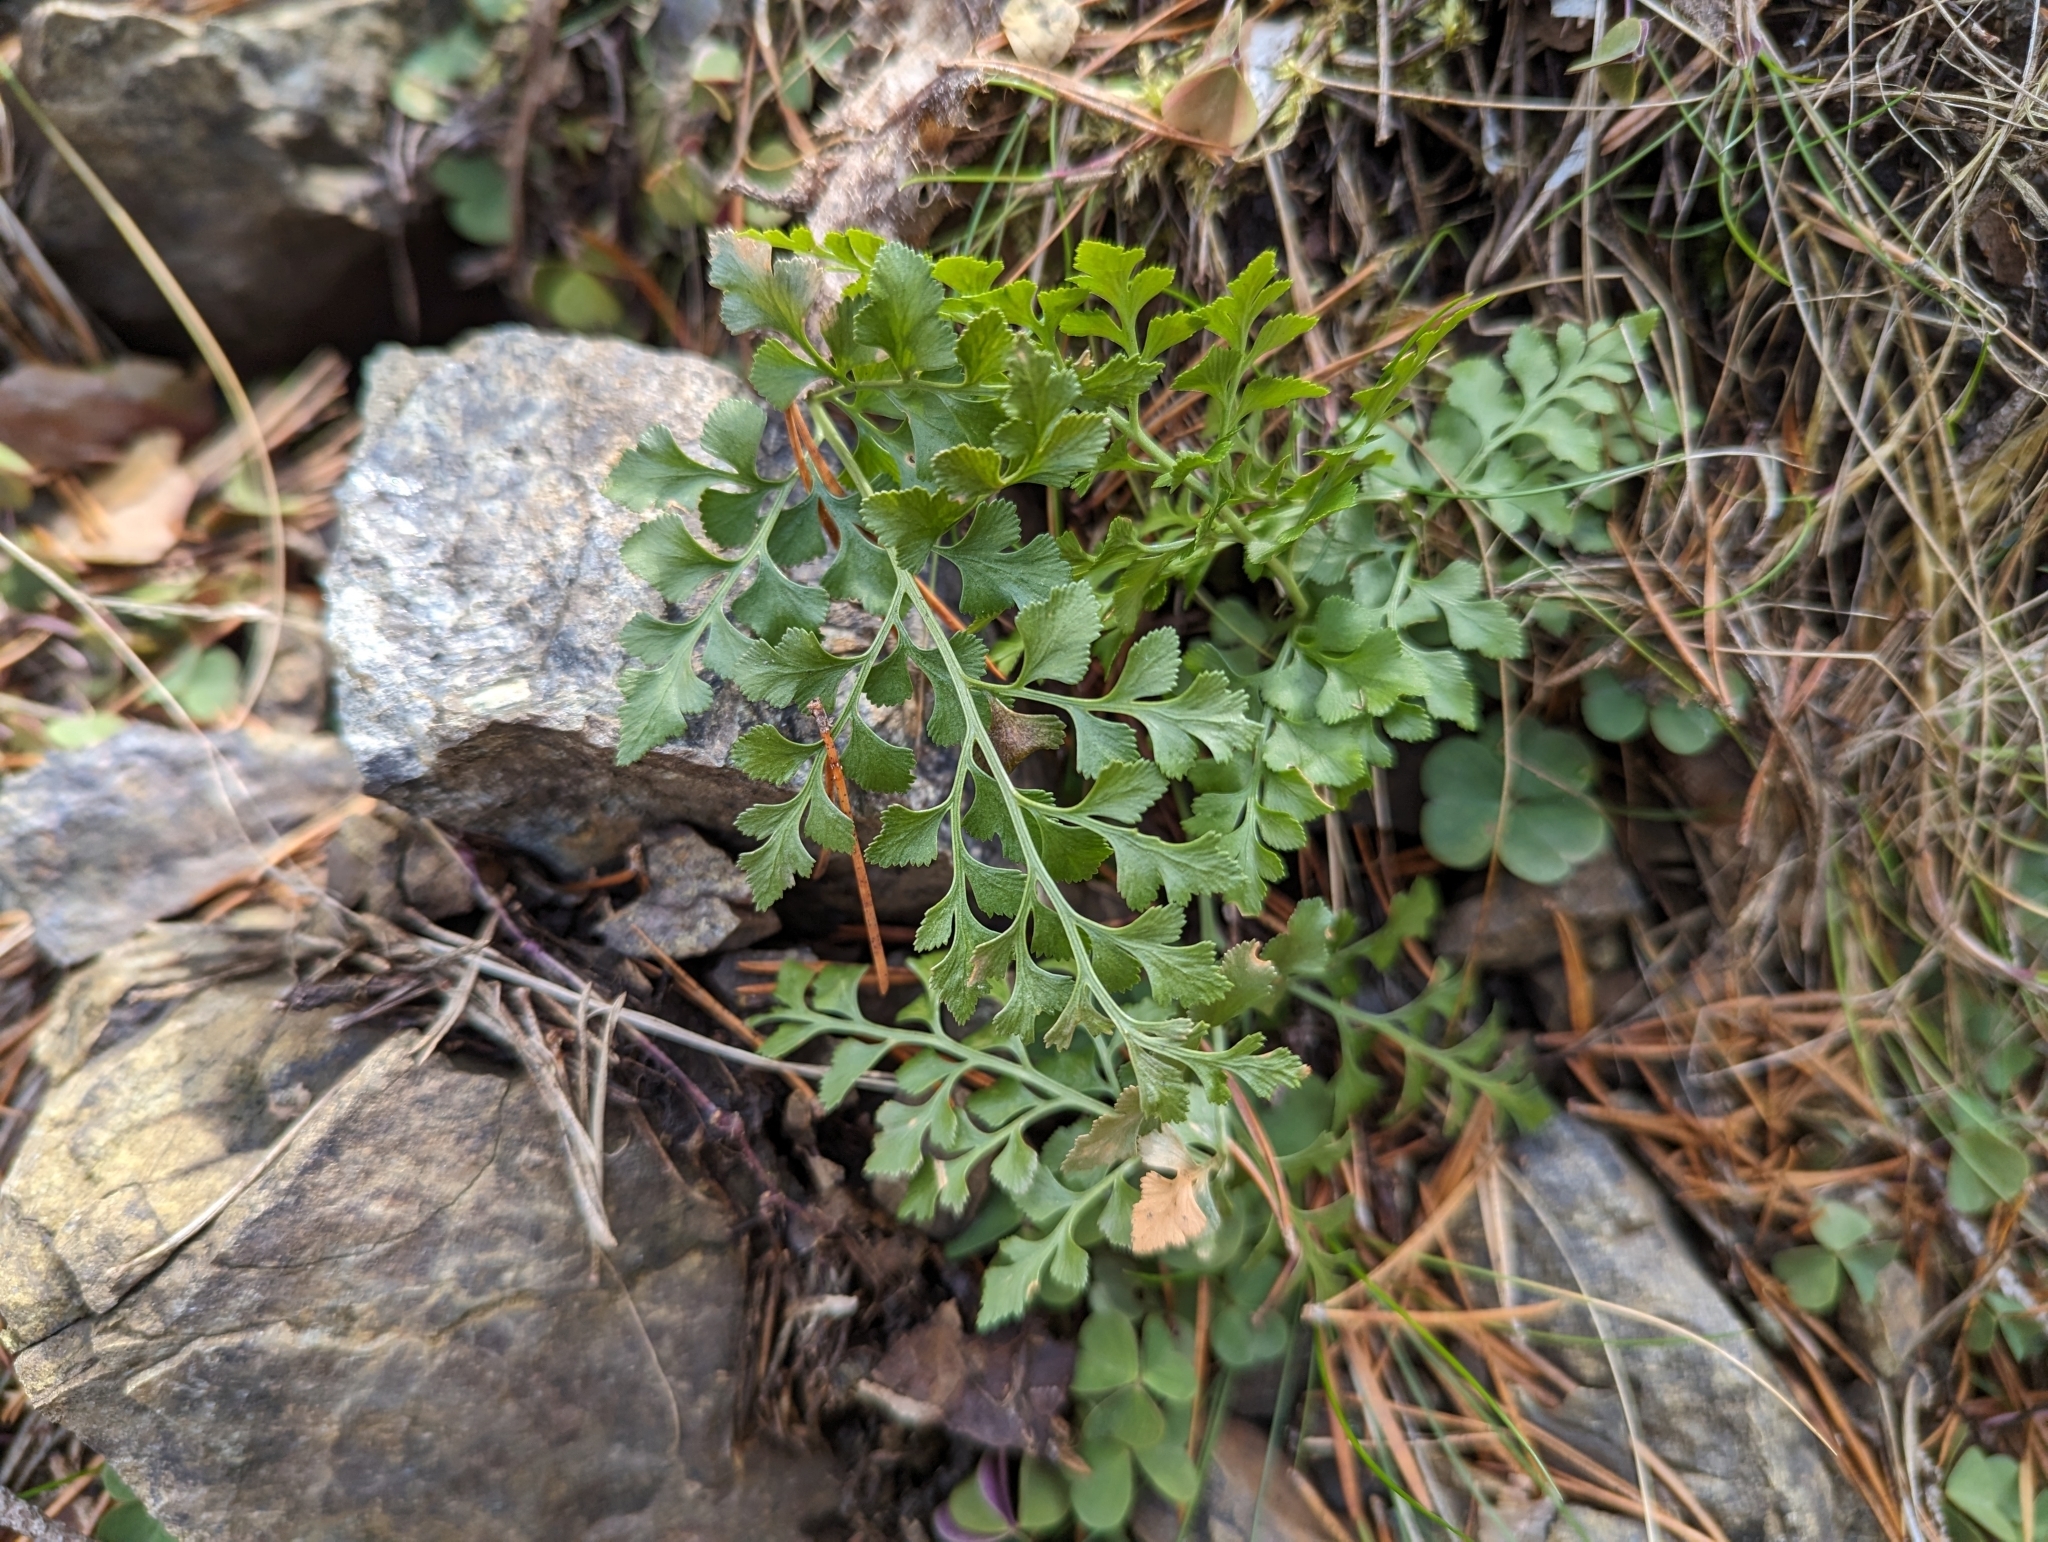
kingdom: Plantae
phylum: Tracheophyta
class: Polypodiopsida
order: Polypodiales
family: Aspleniaceae
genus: Asplenium
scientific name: Asplenium cuneifolium
